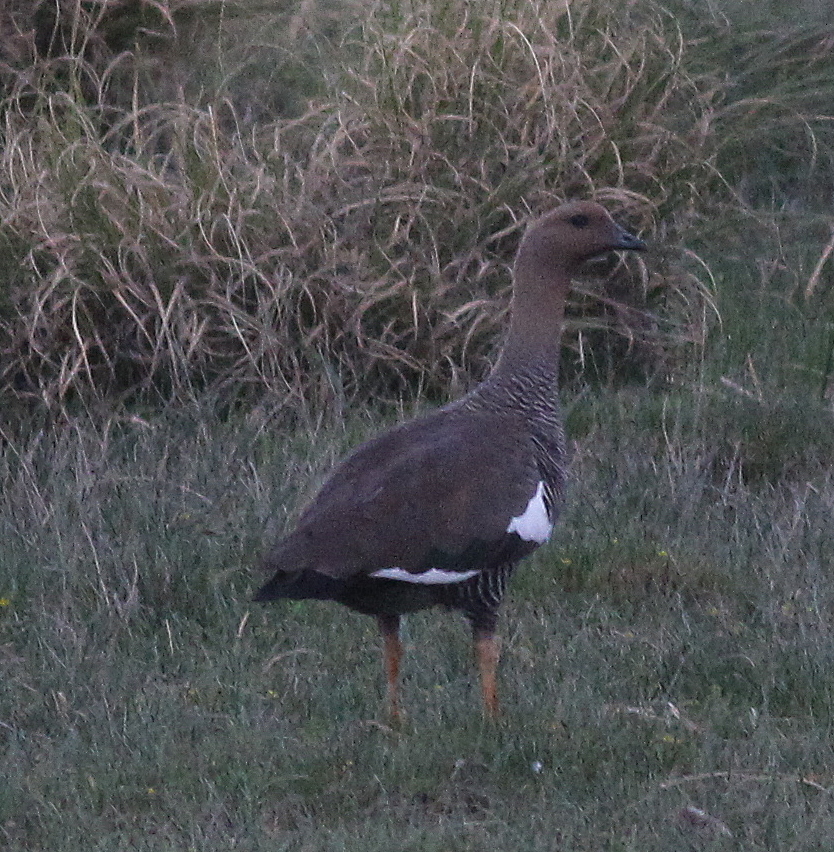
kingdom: Animalia
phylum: Chordata
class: Aves
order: Anseriformes
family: Anatidae
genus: Chloephaga
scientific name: Chloephaga picta
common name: Upland goose
